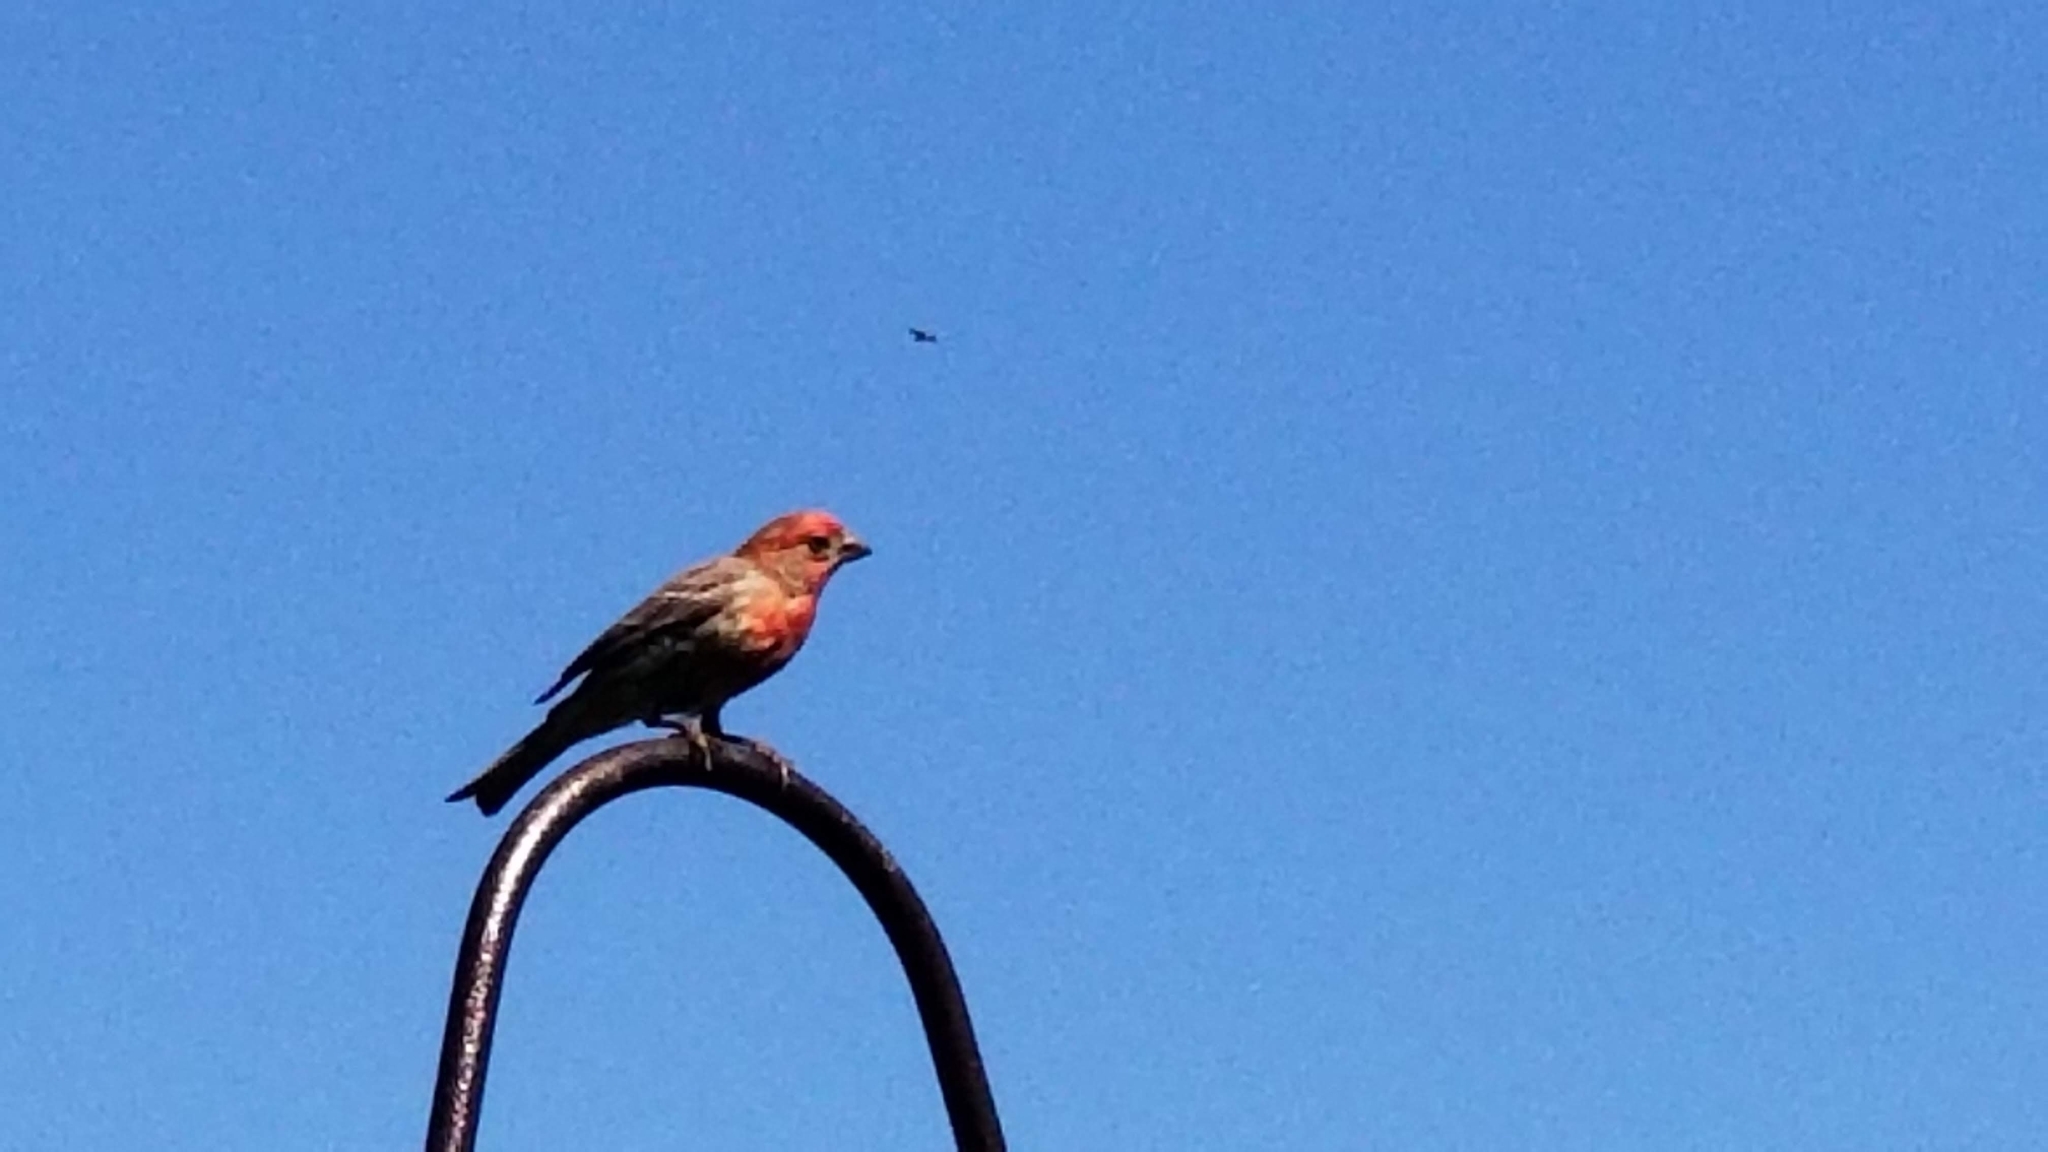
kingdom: Animalia
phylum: Chordata
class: Aves
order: Passeriformes
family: Fringillidae
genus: Haemorhous
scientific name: Haemorhous mexicanus
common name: House finch
